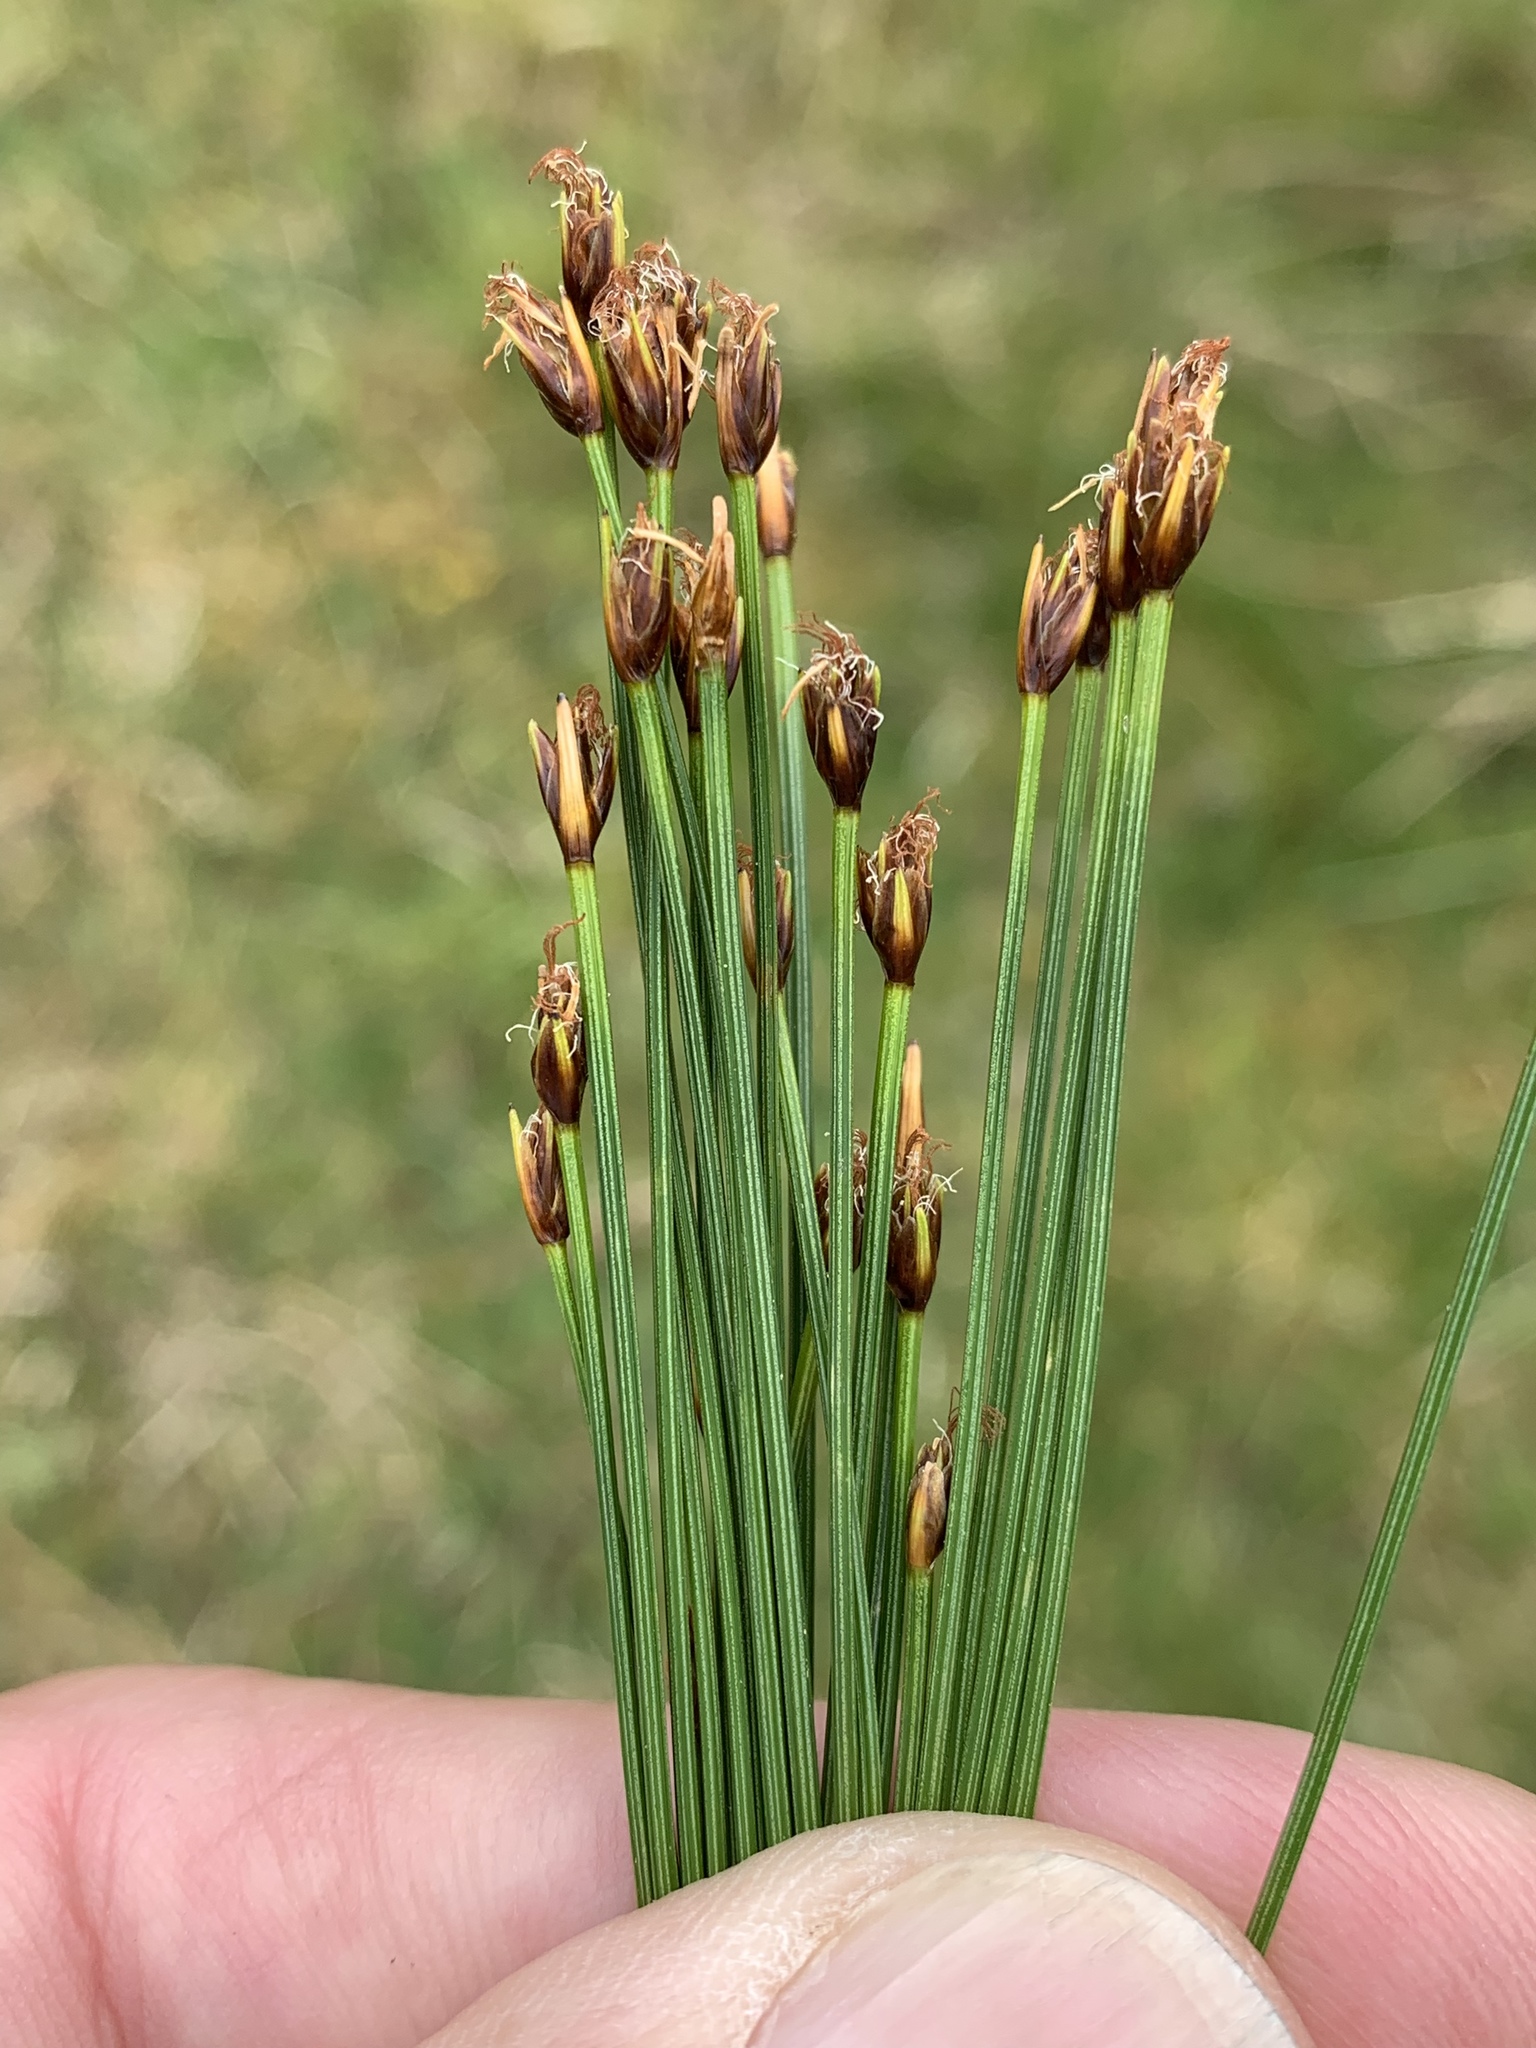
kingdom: Plantae
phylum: Tracheophyta
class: Liliopsida
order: Poales
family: Cyperaceae
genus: Trichophorum
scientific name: Trichophorum cespitosum
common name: Cespitose bulrush
